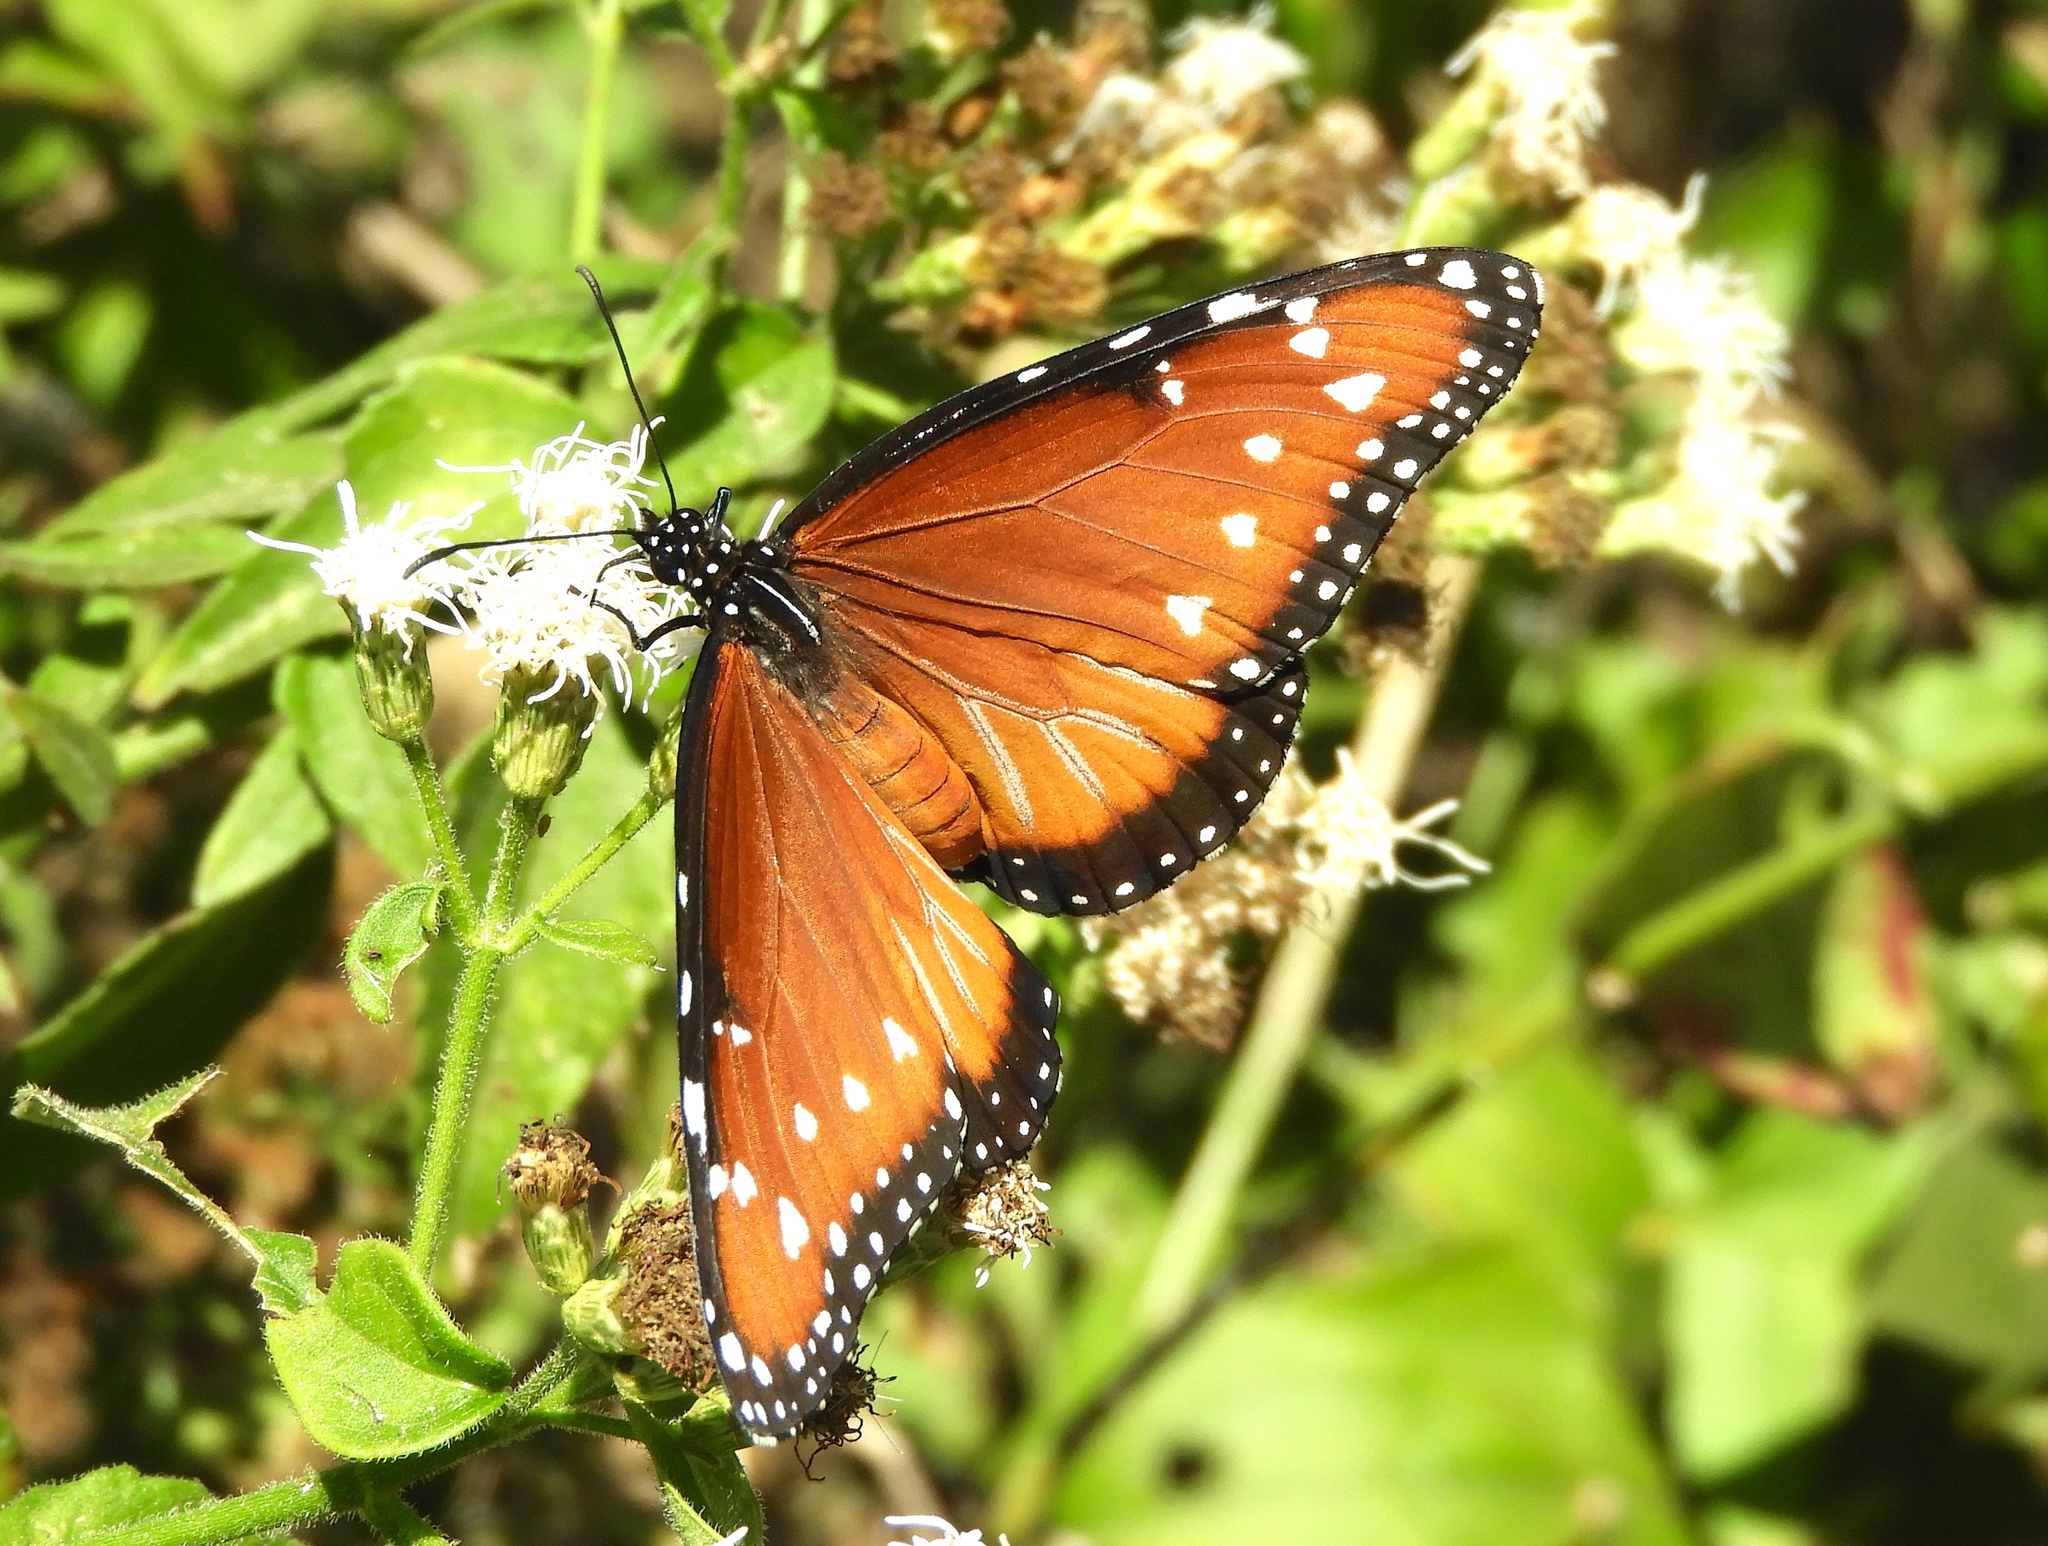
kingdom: Animalia
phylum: Arthropoda
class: Insecta
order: Lepidoptera
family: Nymphalidae
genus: Danaus
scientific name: Danaus gilippus
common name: Queen
